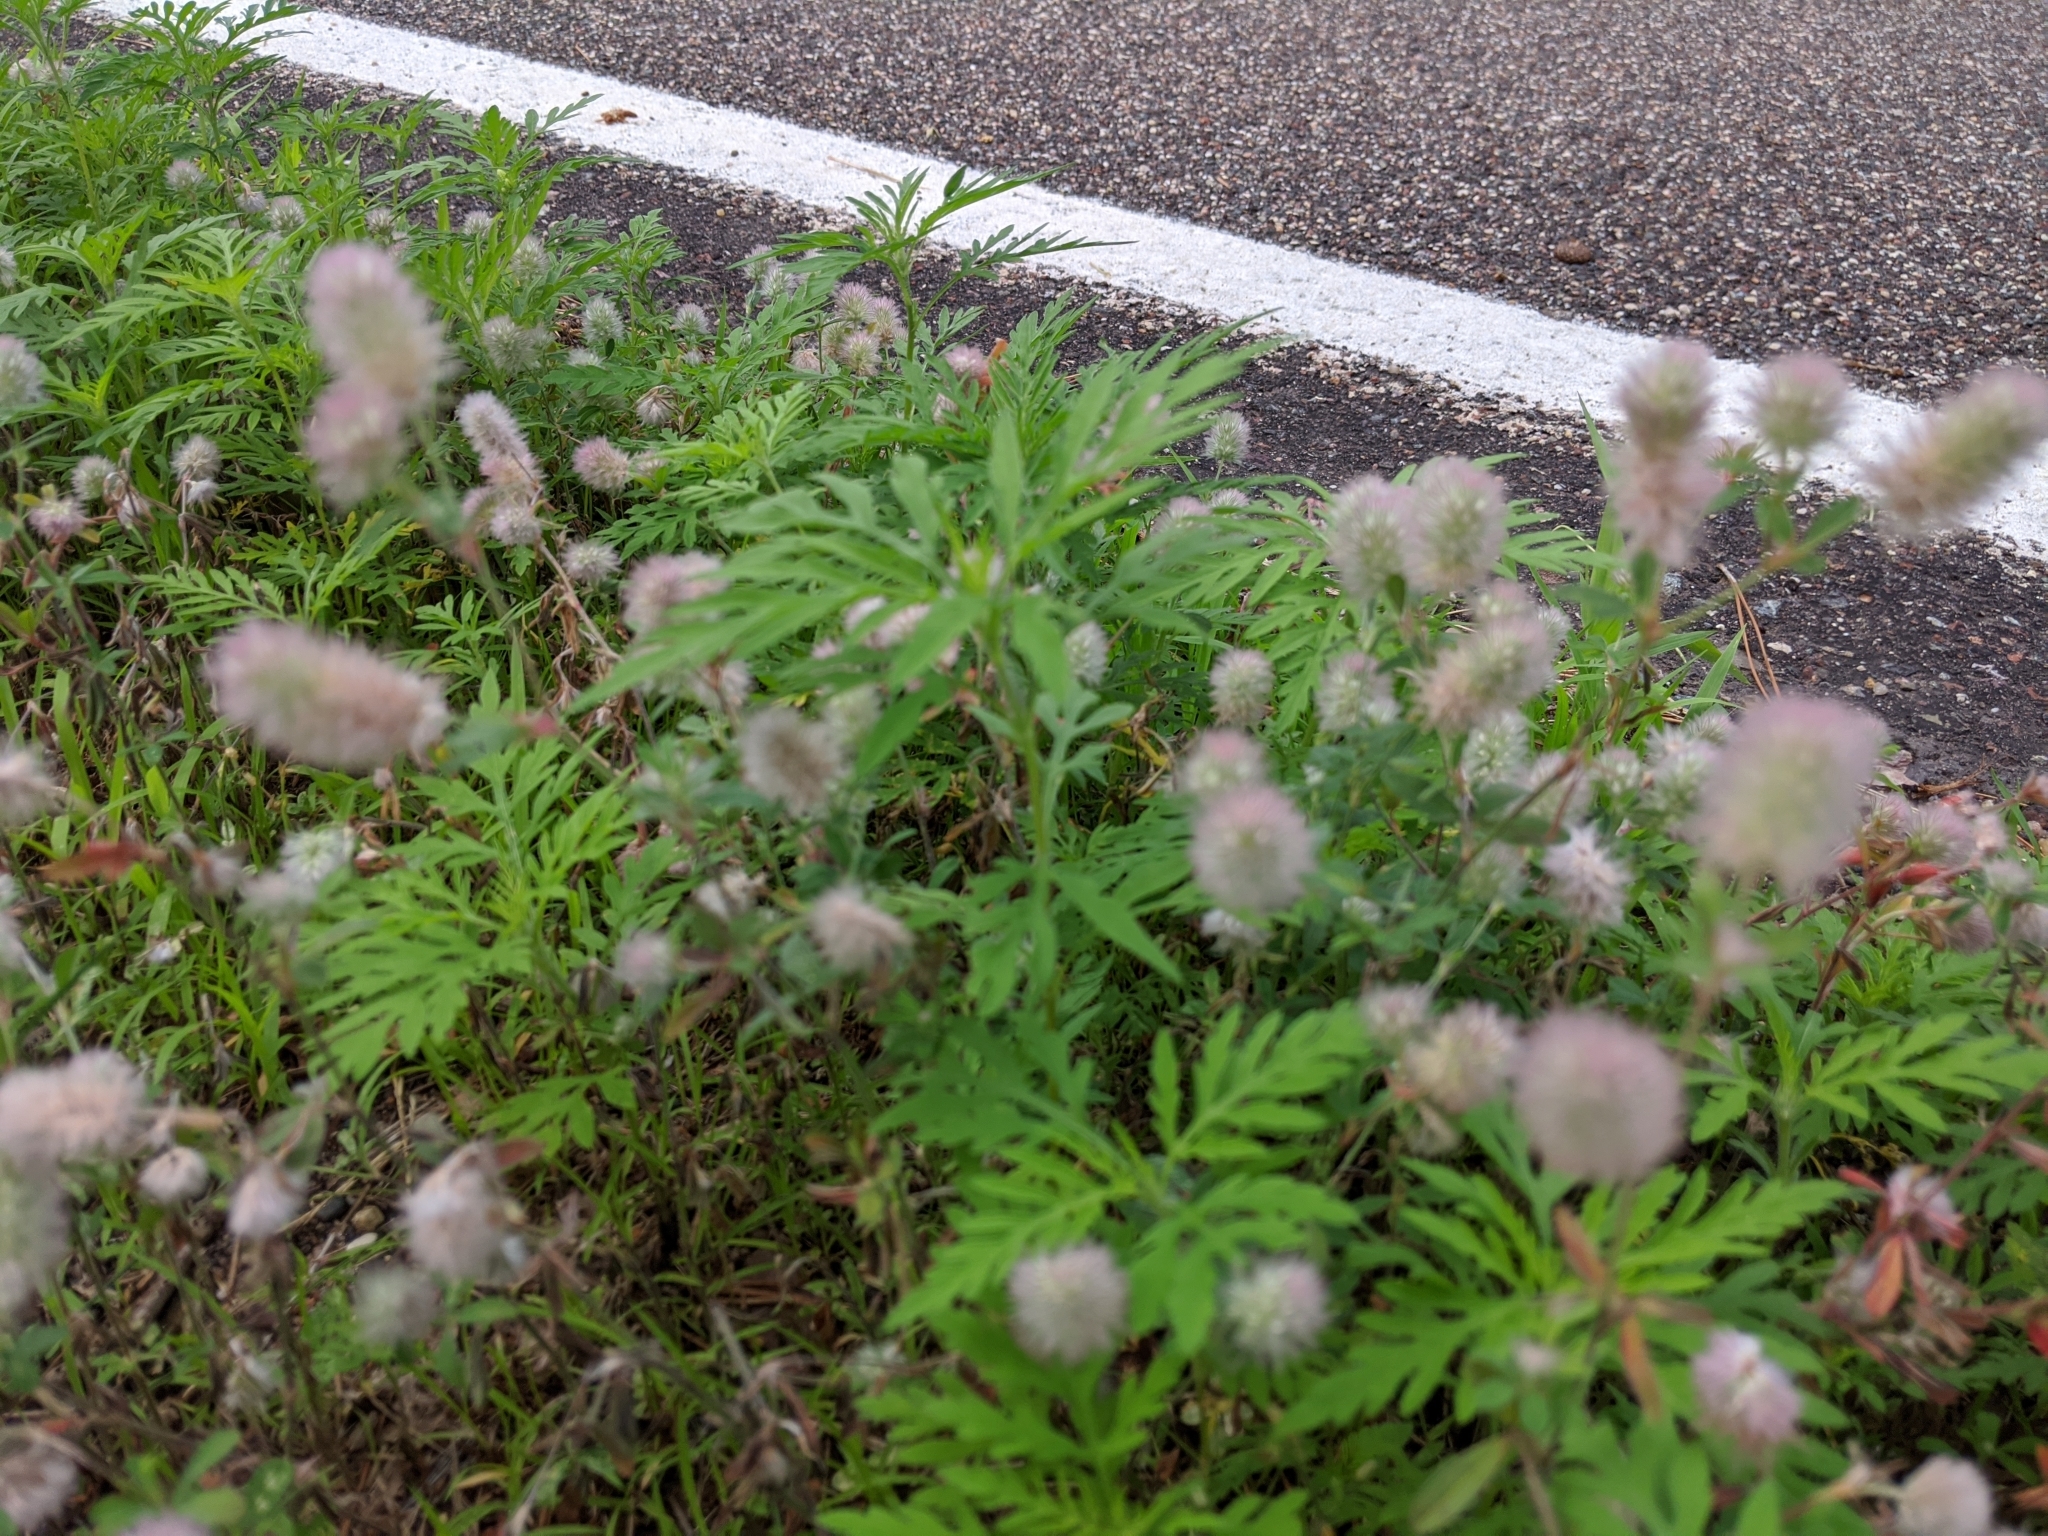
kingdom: Plantae
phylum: Tracheophyta
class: Magnoliopsida
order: Fabales
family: Fabaceae
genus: Trifolium
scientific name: Trifolium arvense
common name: Hare's-foot clover
